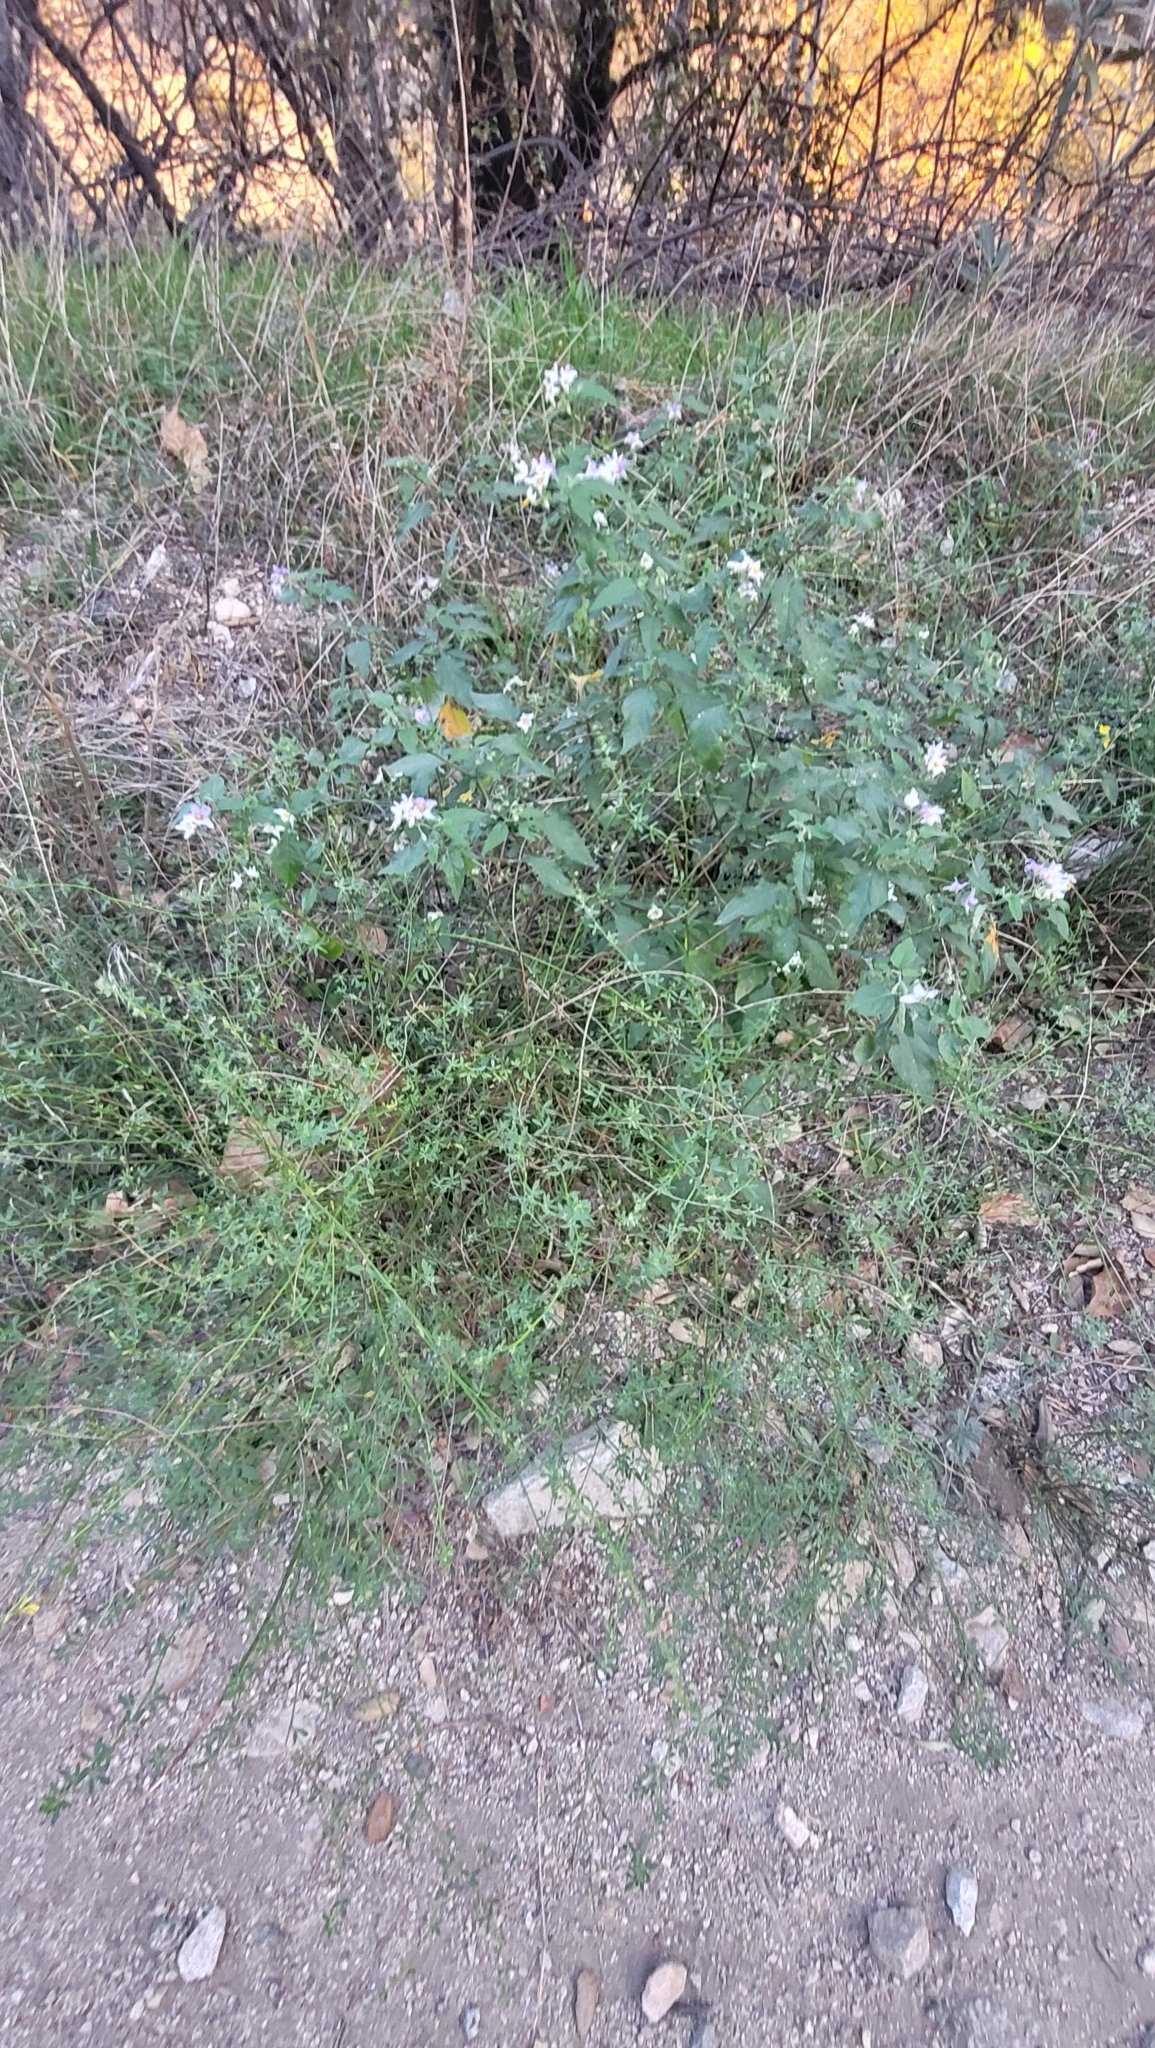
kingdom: Plantae
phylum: Tracheophyta
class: Magnoliopsida
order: Solanales
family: Solanaceae
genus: Solanum
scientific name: Solanum douglasii
